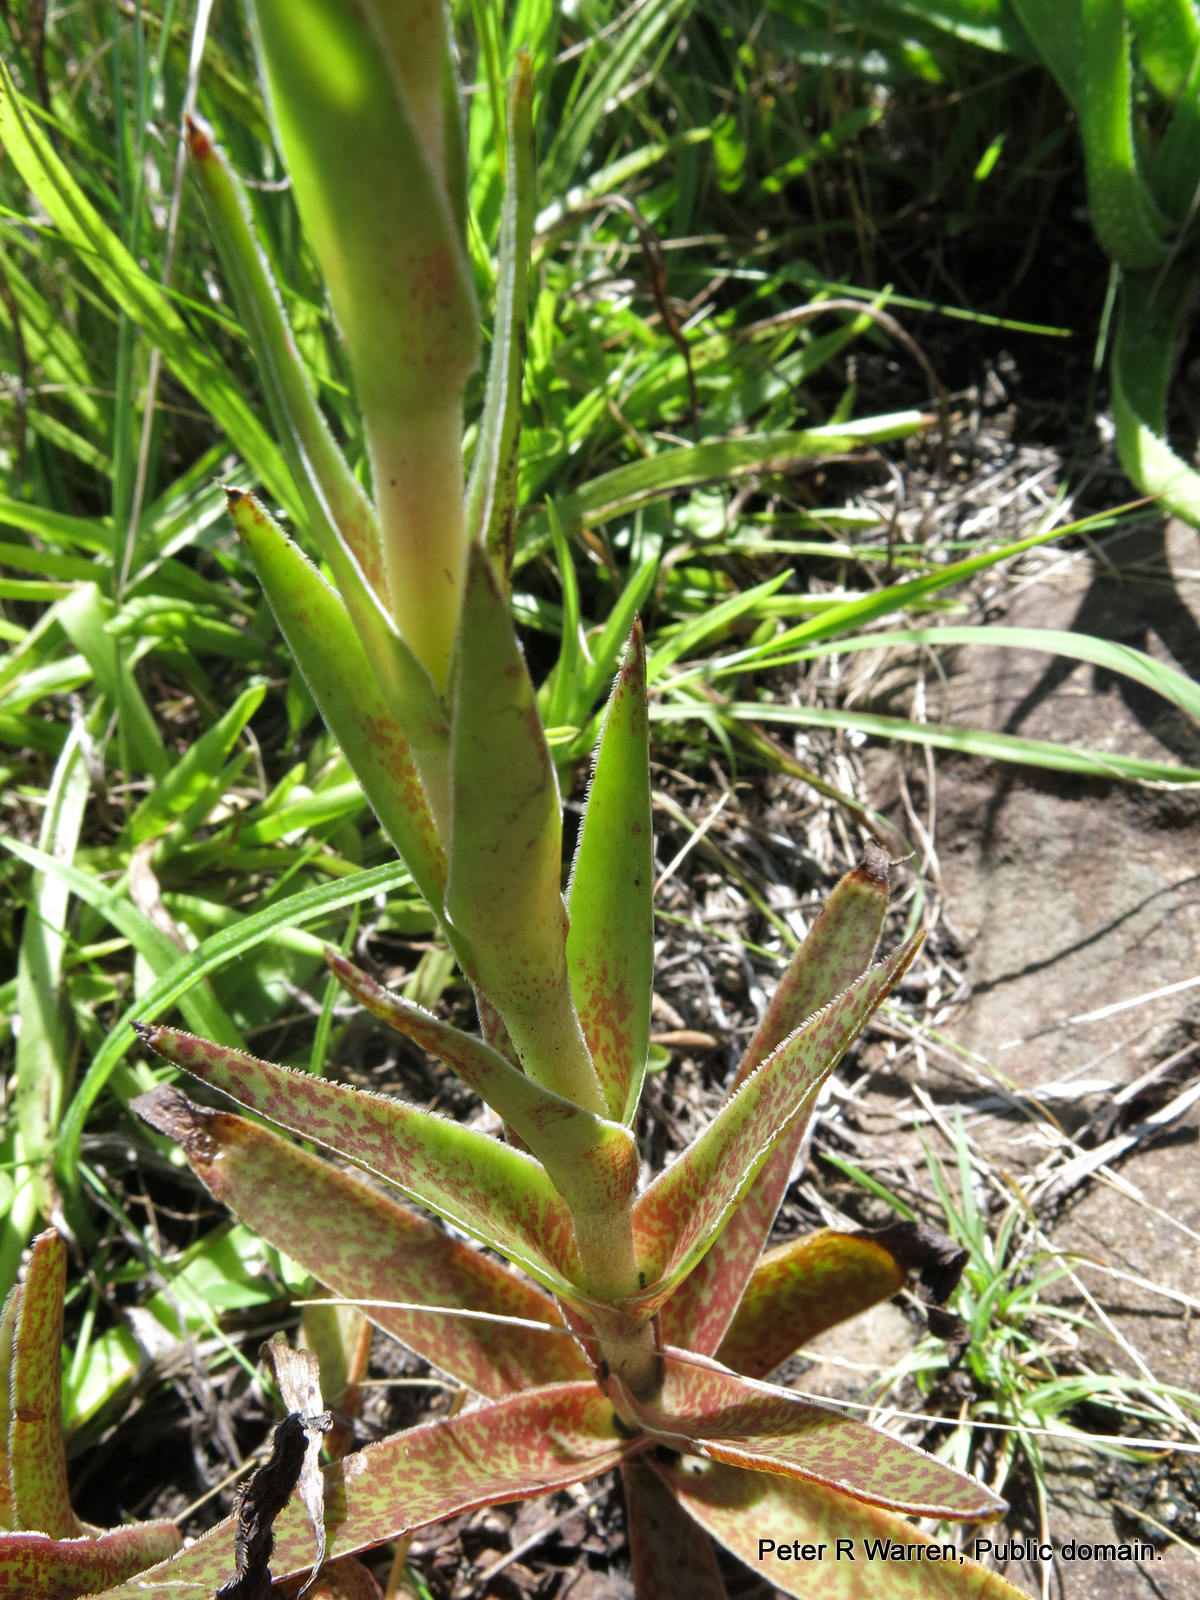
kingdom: Plantae
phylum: Tracheophyta
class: Magnoliopsida
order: Saxifragales
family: Crassulaceae
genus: Crassula
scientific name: Crassula alba
